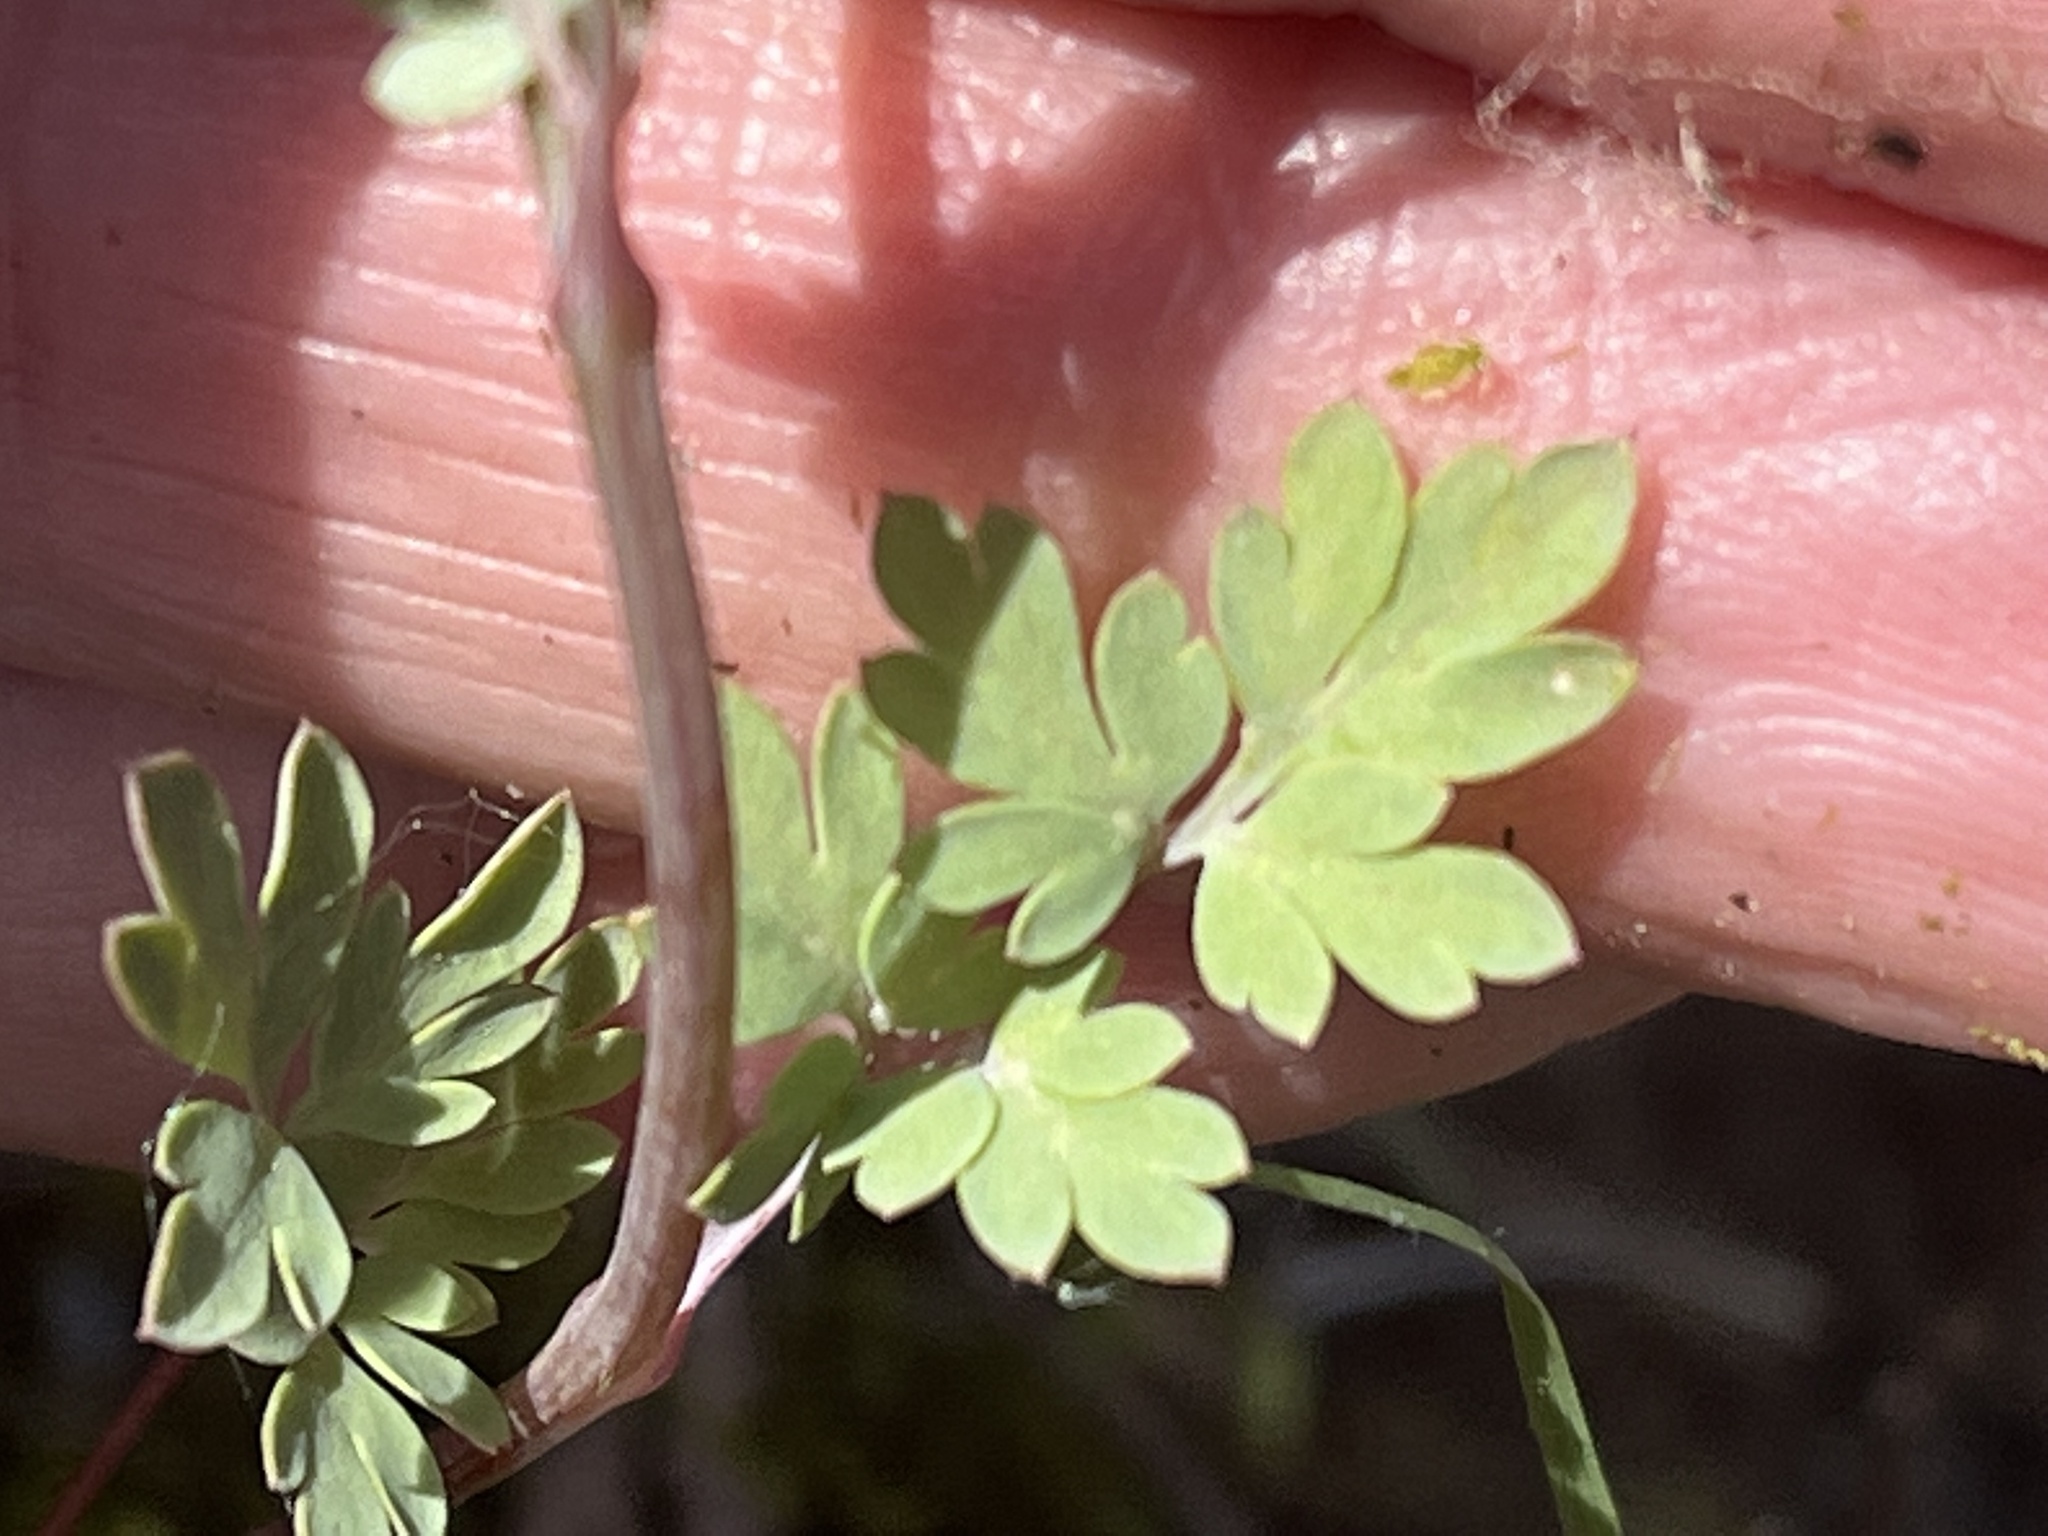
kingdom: Plantae
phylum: Tracheophyta
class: Magnoliopsida
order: Ranunculales
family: Papaveraceae
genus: Capnoides
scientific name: Capnoides sempervirens
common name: Rock harlequin
